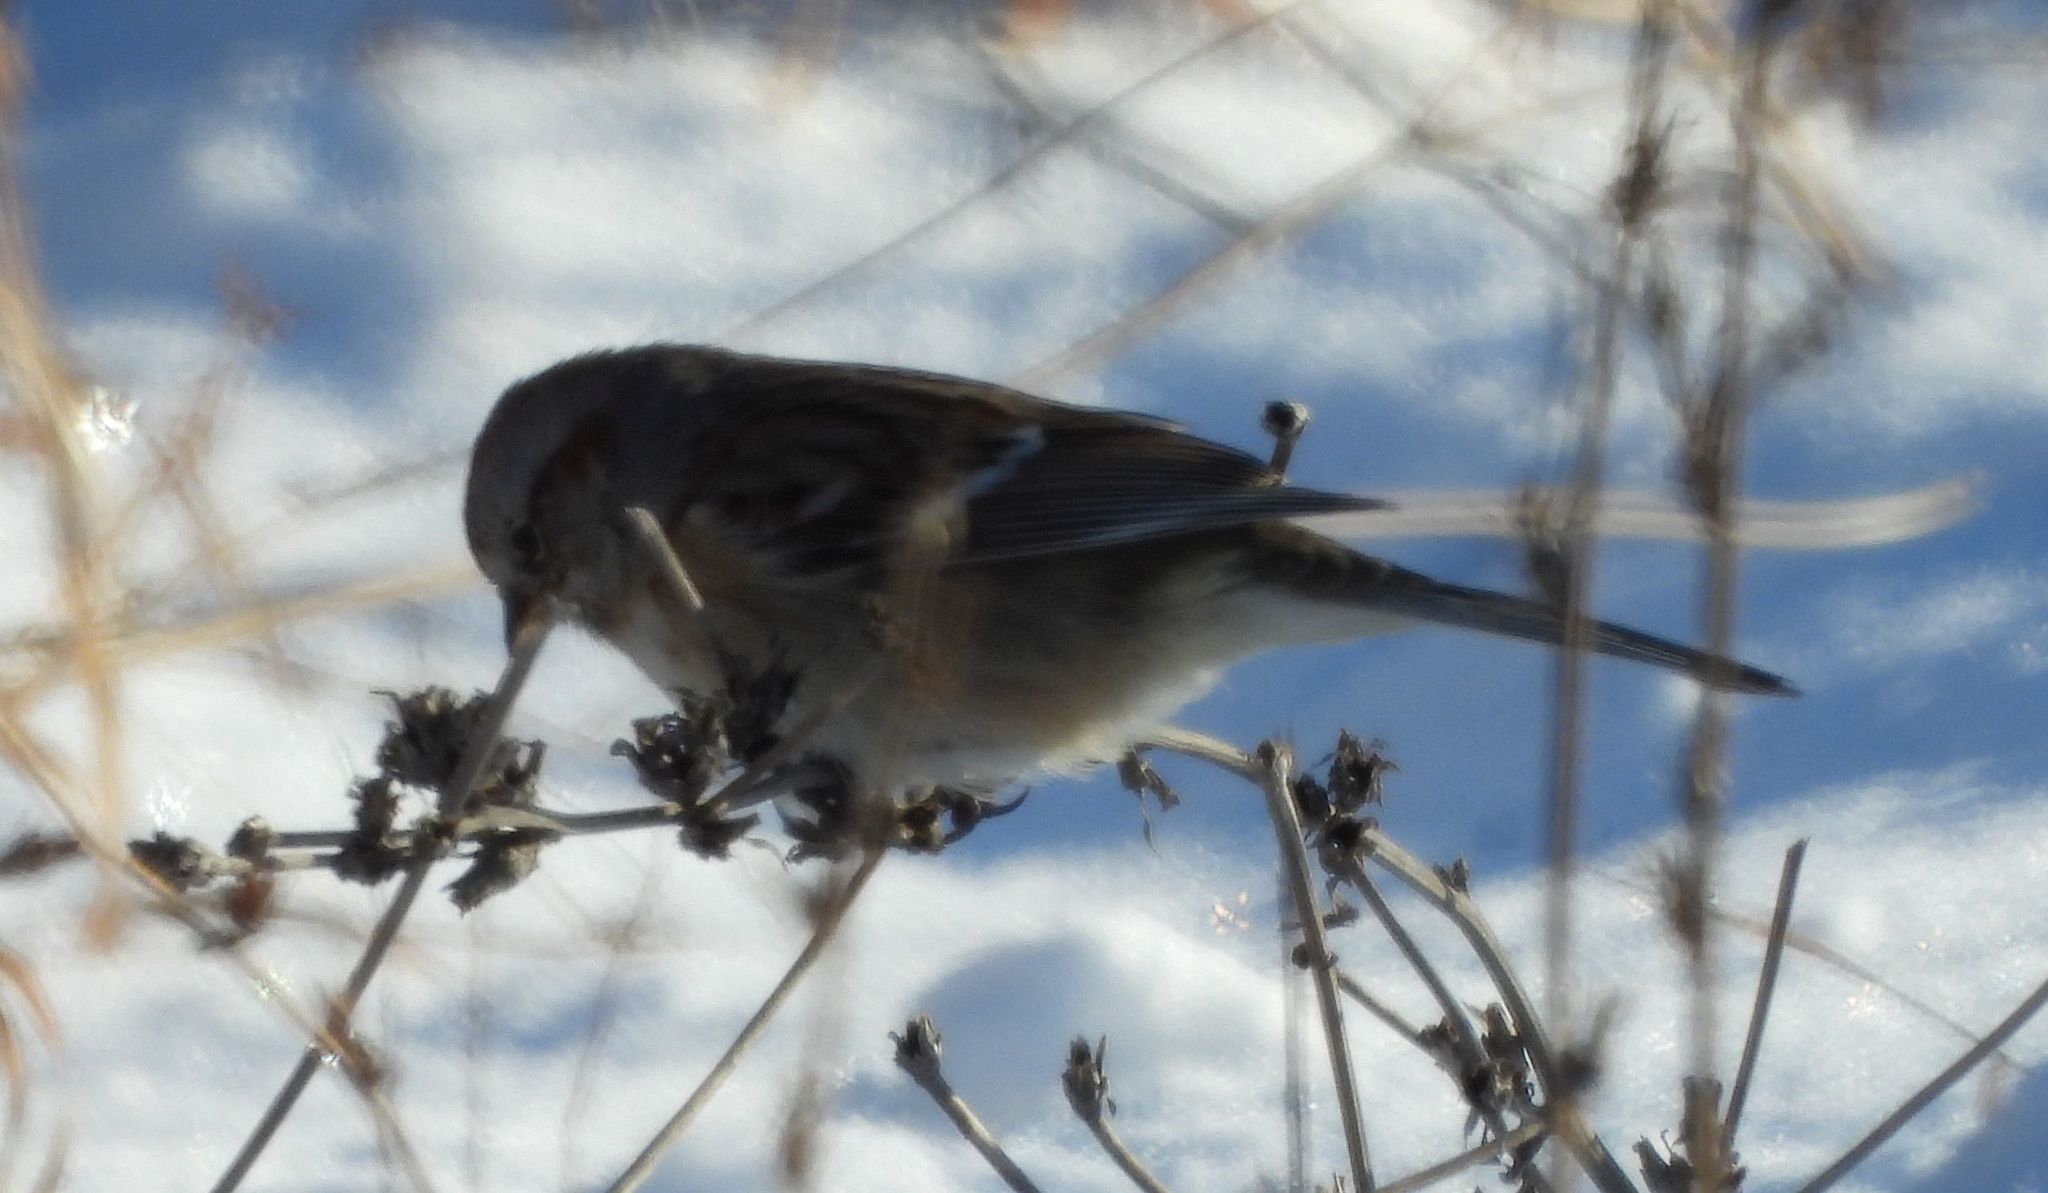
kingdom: Animalia
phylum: Chordata
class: Aves
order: Passeriformes
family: Passerellidae
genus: Spizelloides
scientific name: Spizelloides arborea
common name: American tree sparrow
